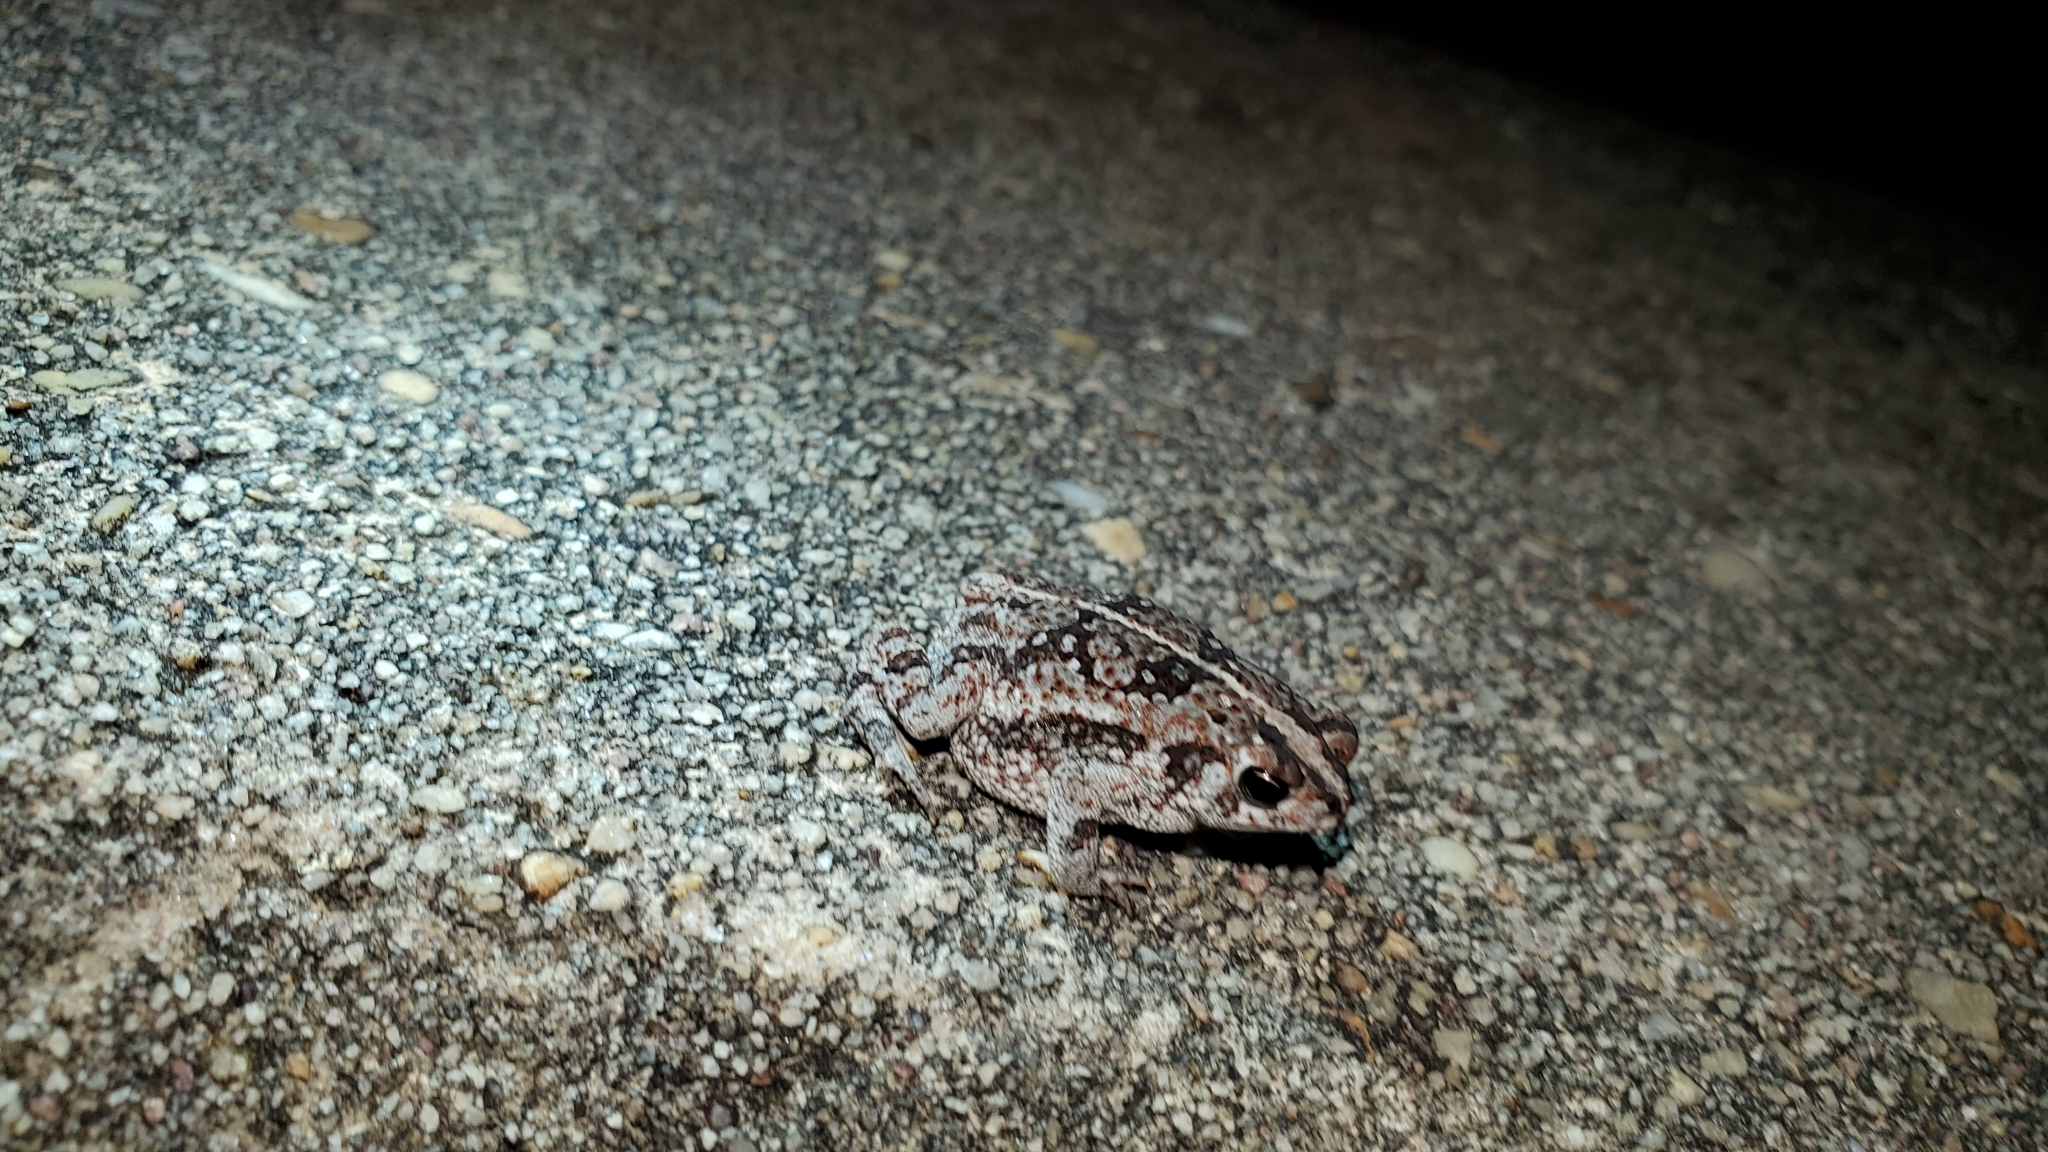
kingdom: Animalia
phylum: Chordata
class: Amphibia
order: Anura
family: Bufonidae
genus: Anaxyrus
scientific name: Anaxyrus quercicus
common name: Oak toad
